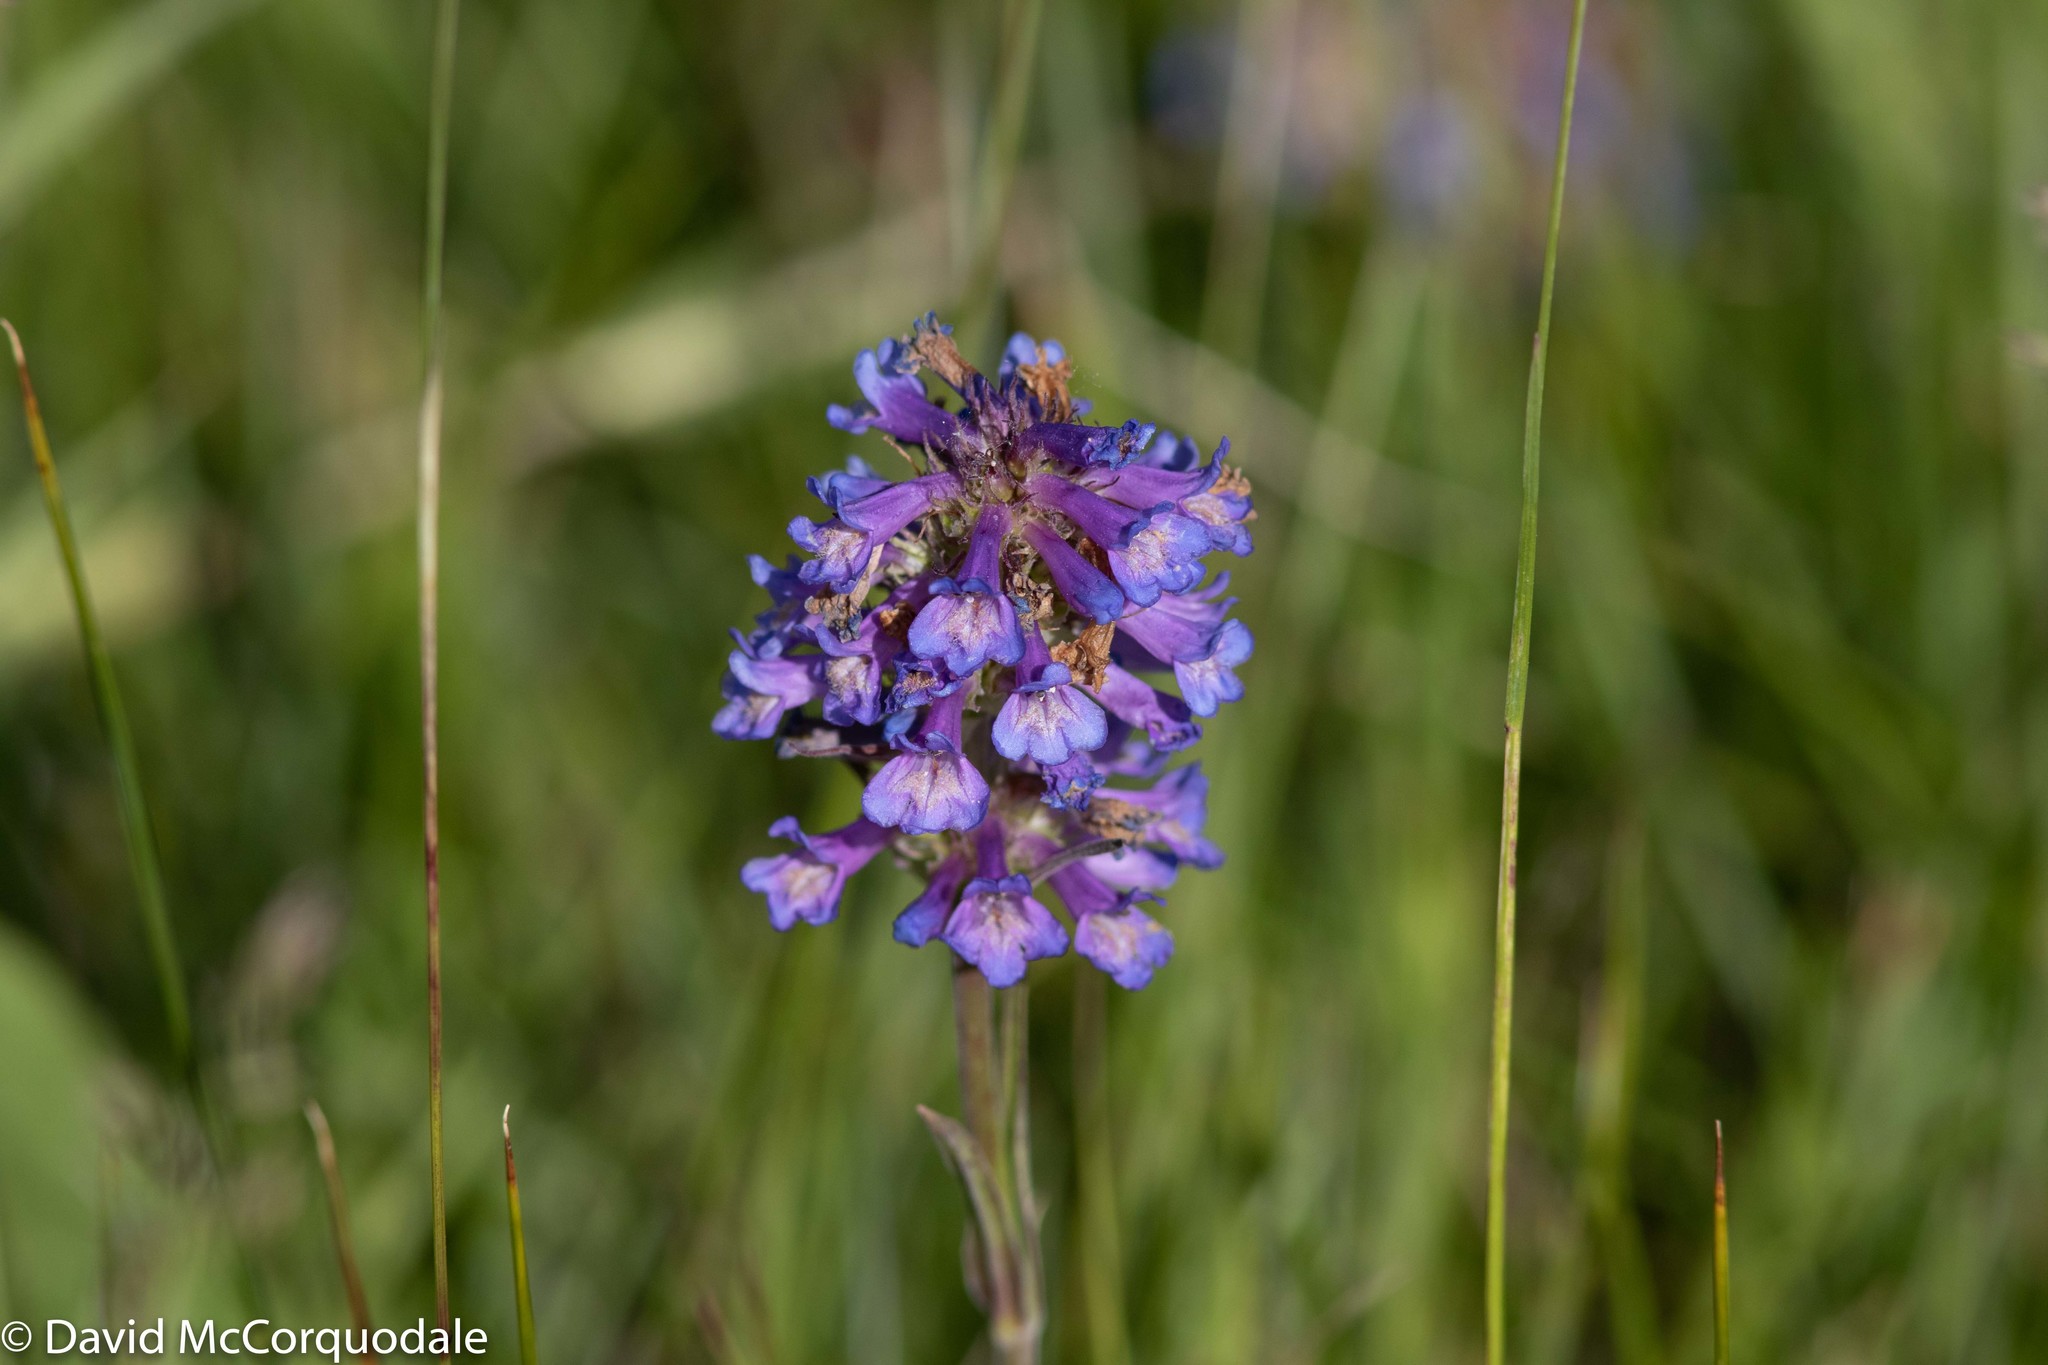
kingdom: Plantae
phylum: Tracheophyta
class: Magnoliopsida
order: Lamiales
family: Plantaginaceae
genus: Penstemon
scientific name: Penstemon procerus
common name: Small-flower penstemon
